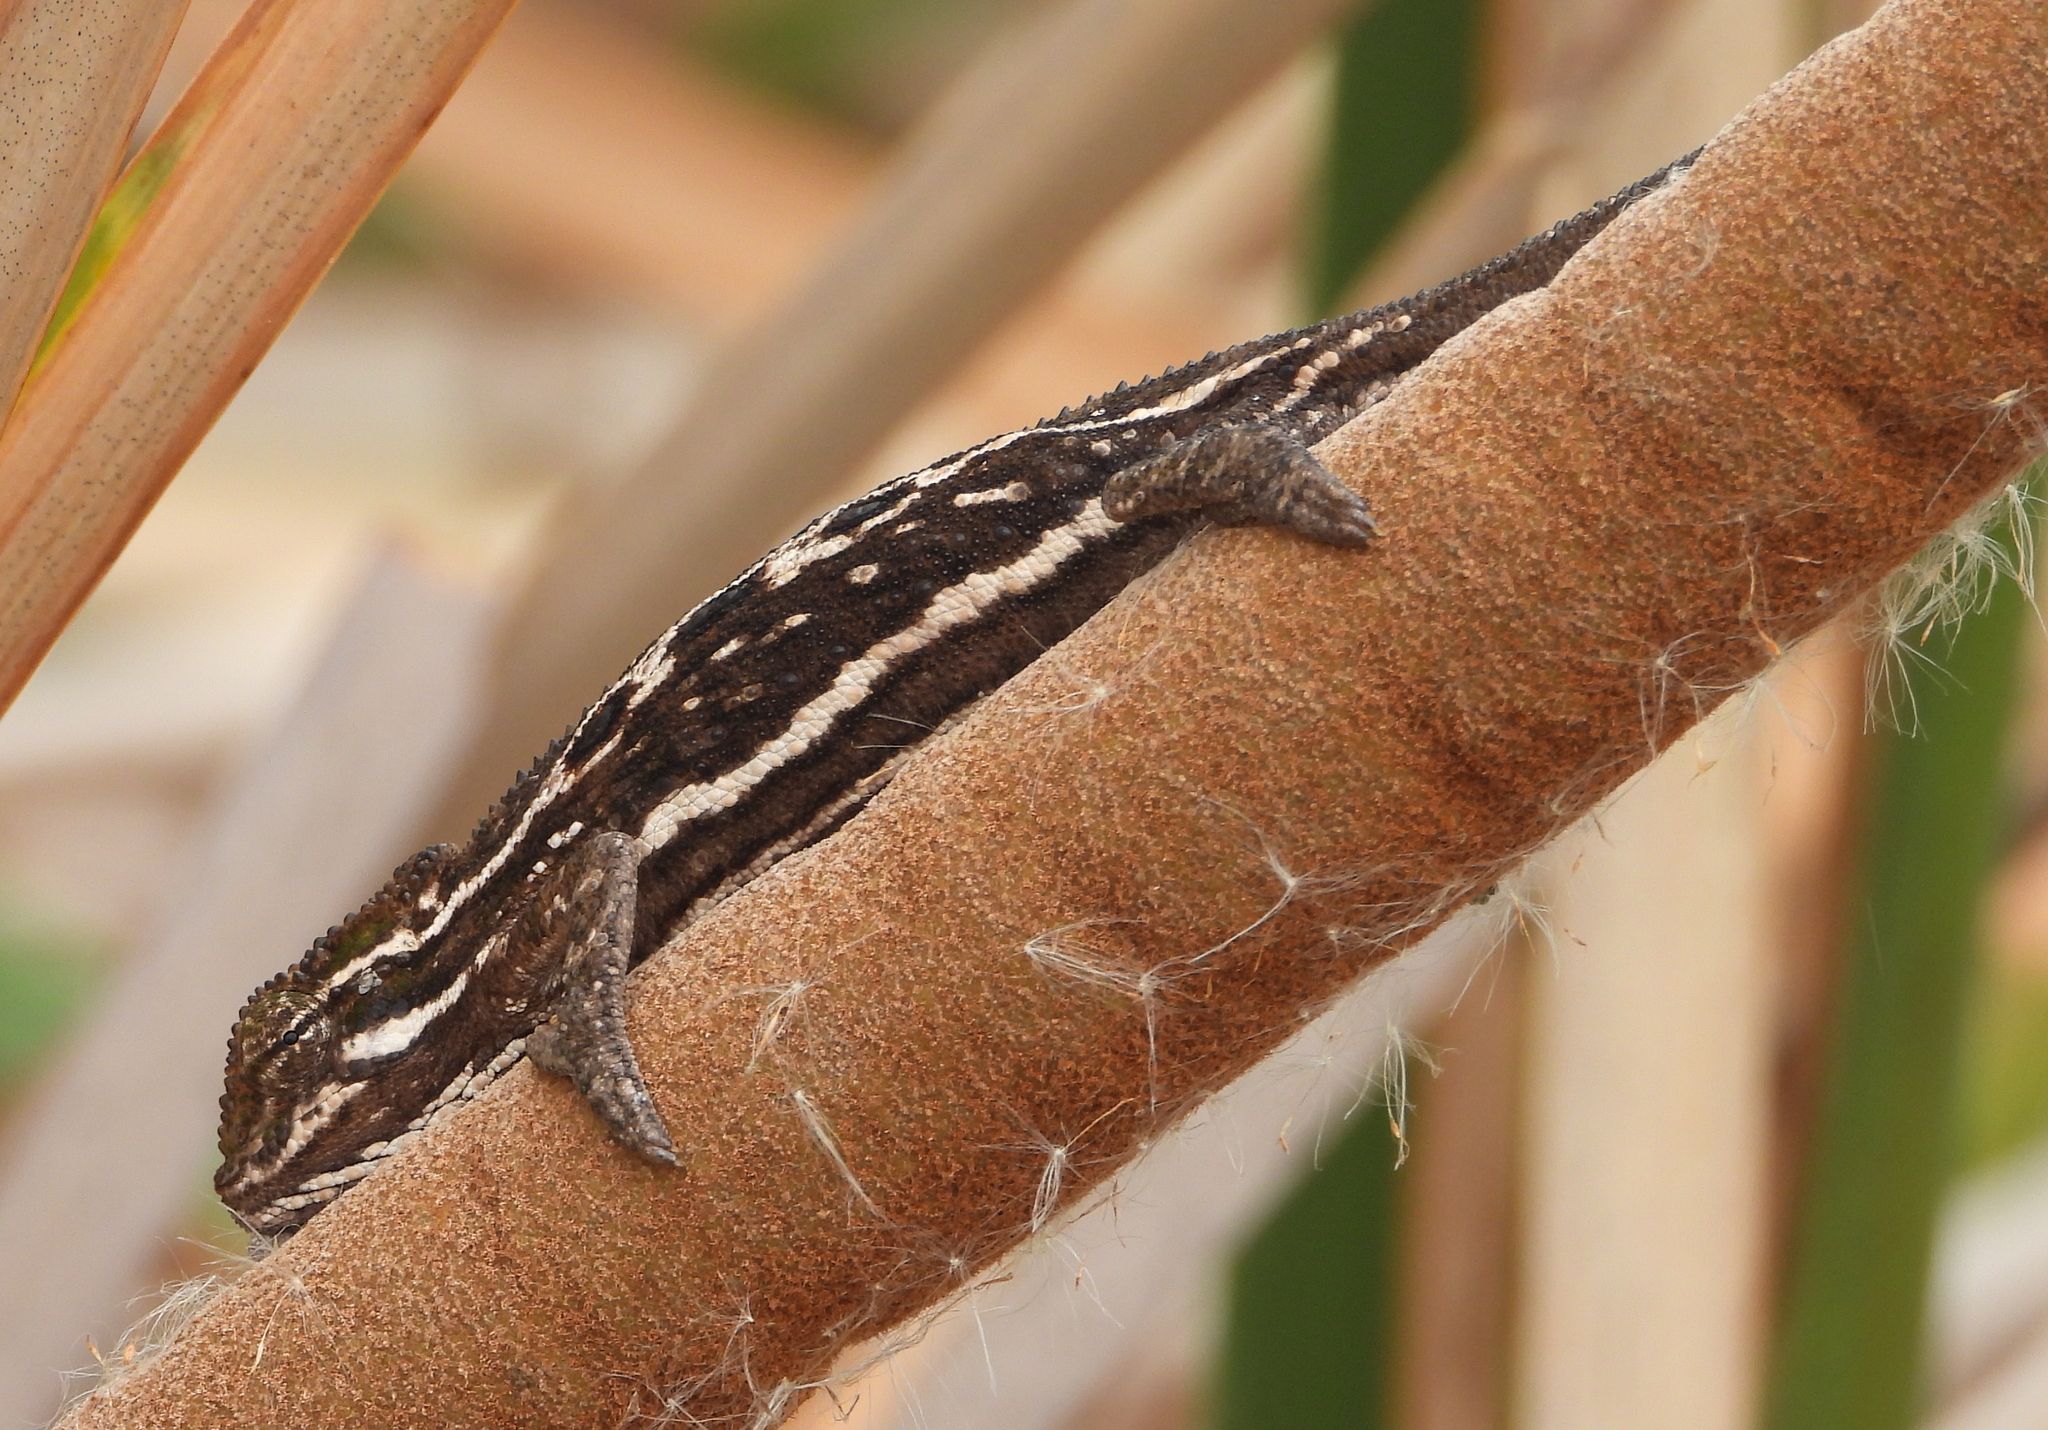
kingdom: Animalia
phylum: Chordata
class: Squamata
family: Chamaeleonidae
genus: Bradypodion
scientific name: Bradypodion pumilum
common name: Cape dwarf chameleon
